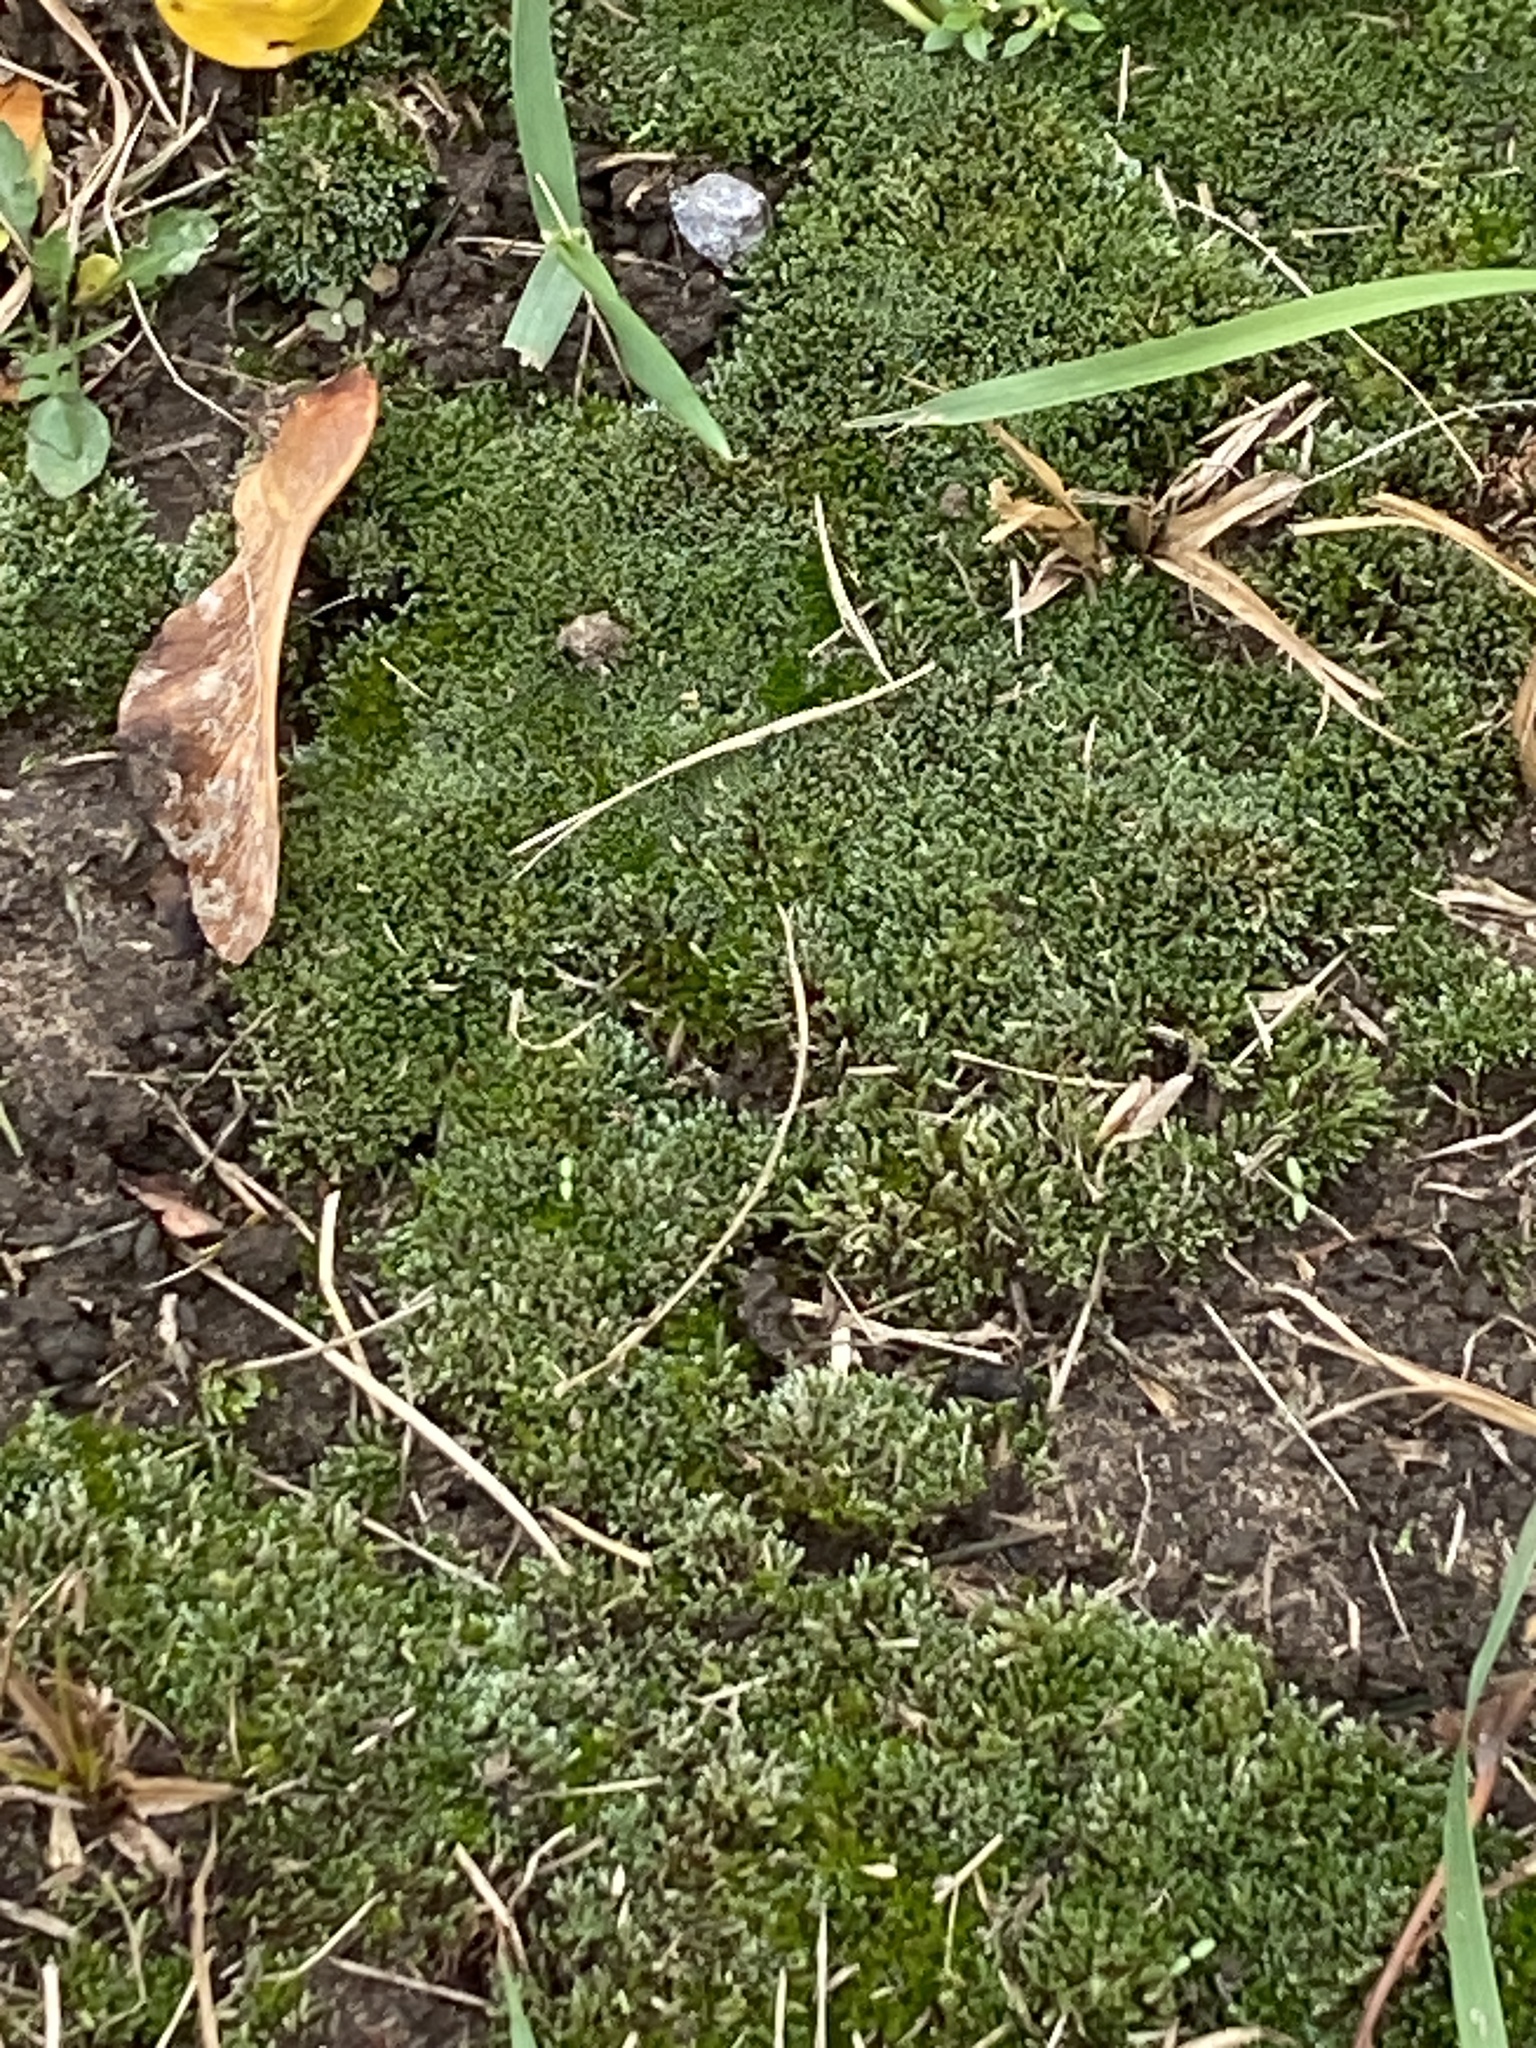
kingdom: Plantae
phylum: Bryophyta
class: Bryopsida
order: Bryales
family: Bryaceae
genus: Bryum
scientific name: Bryum argenteum
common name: Silver-moss
